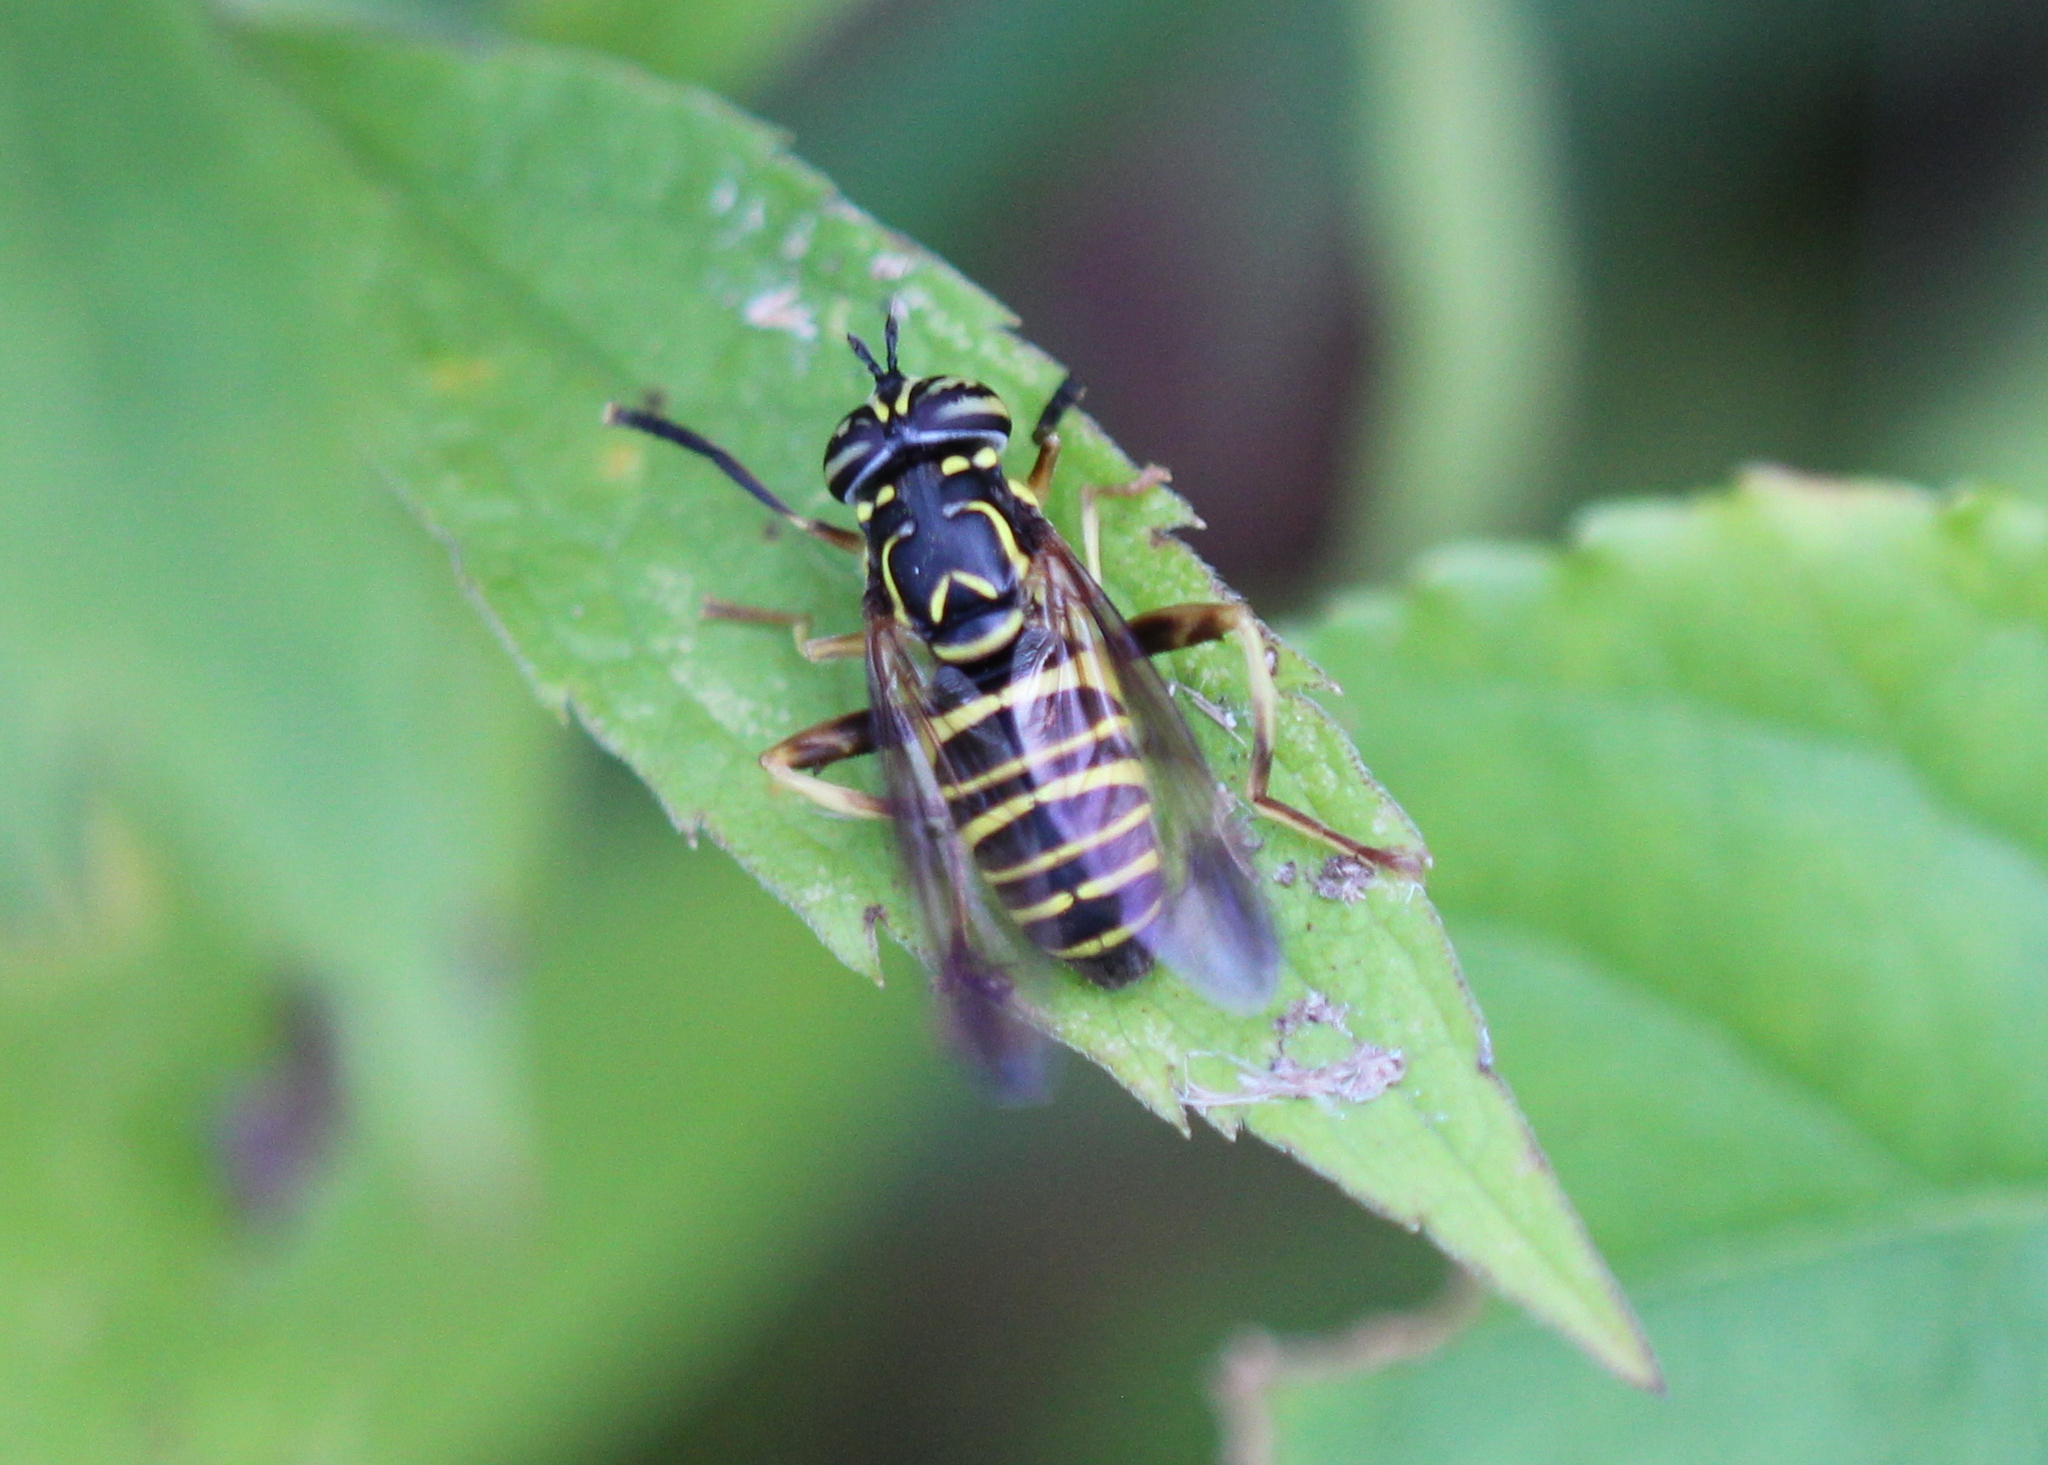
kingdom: Animalia
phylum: Arthropoda
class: Insecta
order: Diptera
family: Syrphidae
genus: Spilomyia
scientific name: Spilomyia longicornis
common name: Eastern hornet fly
